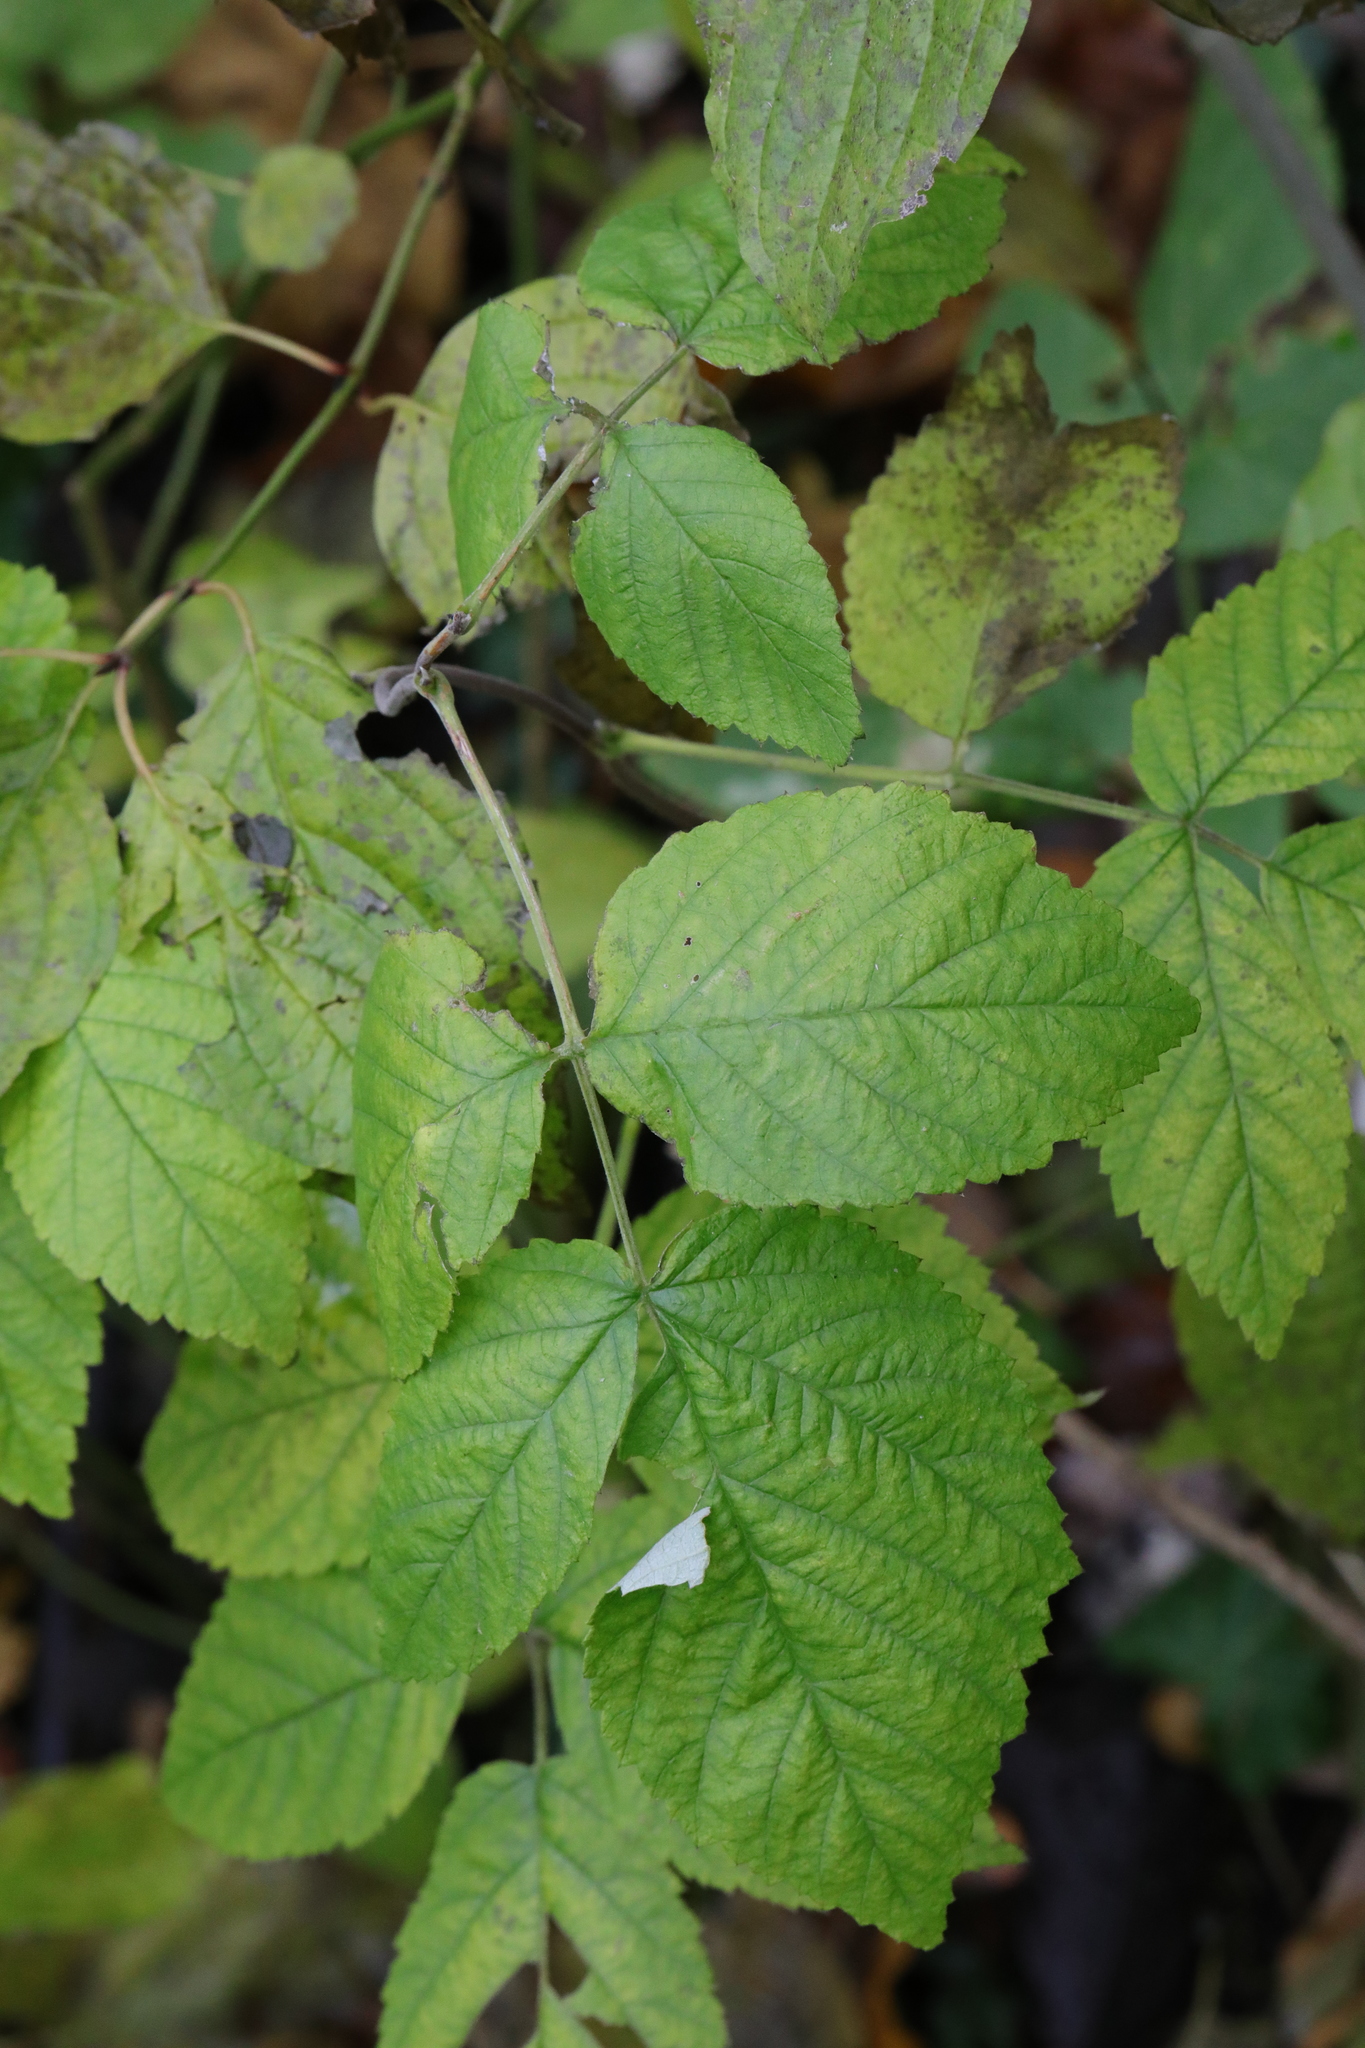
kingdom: Plantae
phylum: Tracheophyta
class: Magnoliopsida
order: Rosales
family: Rosaceae
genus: Rubus
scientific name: Rubus idaeus
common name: Raspberry
